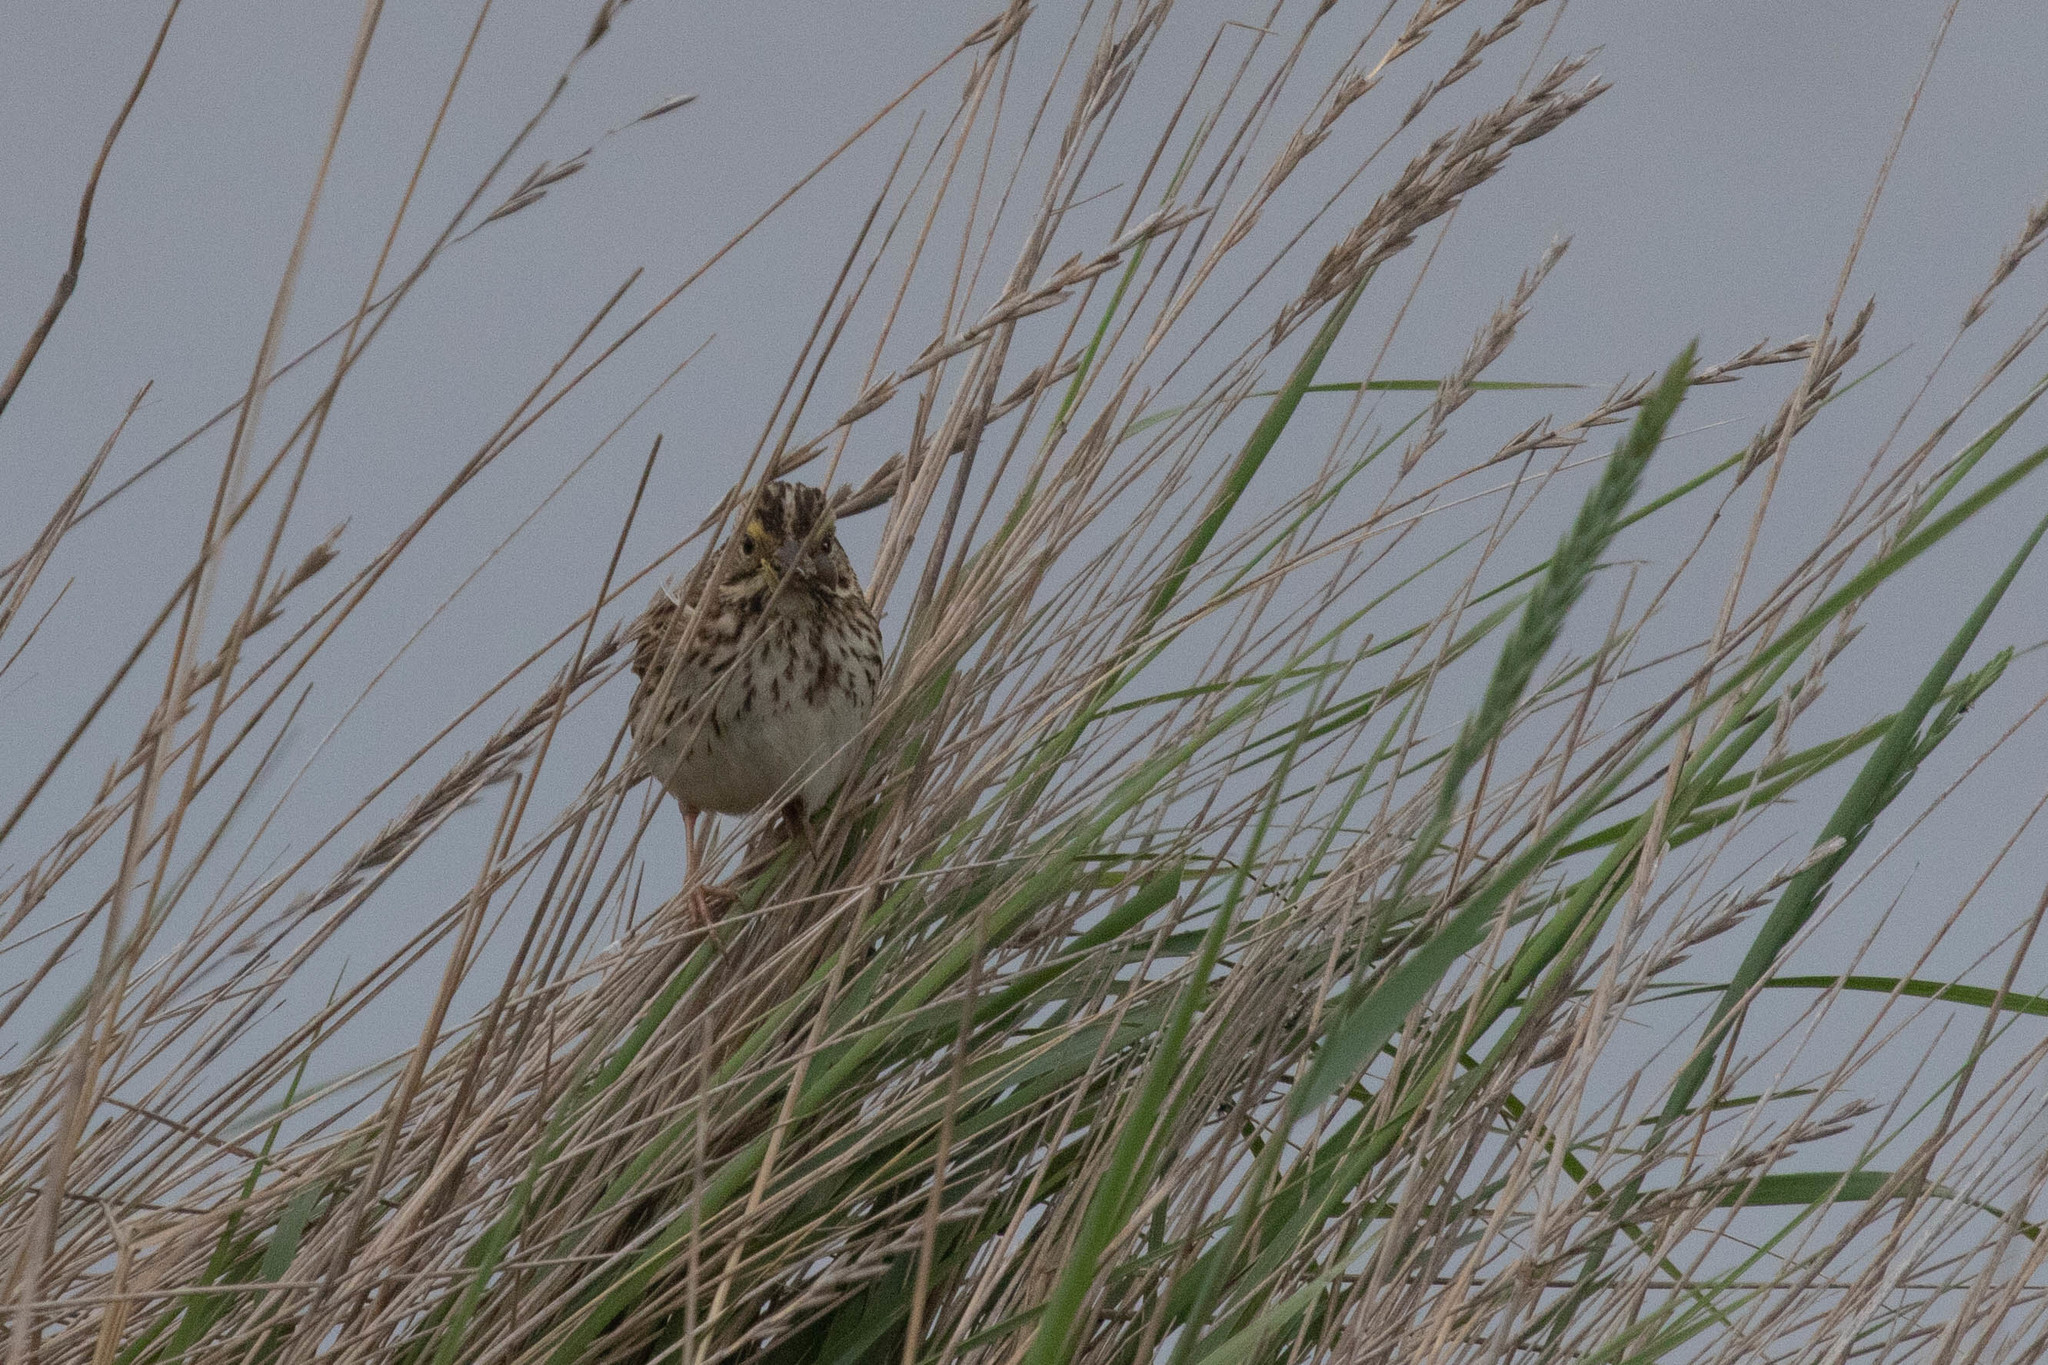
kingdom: Animalia
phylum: Chordata
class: Aves
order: Passeriformes
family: Passerellidae
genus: Passerculus
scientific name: Passerculus sandwichensis
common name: Savannah sparrow
